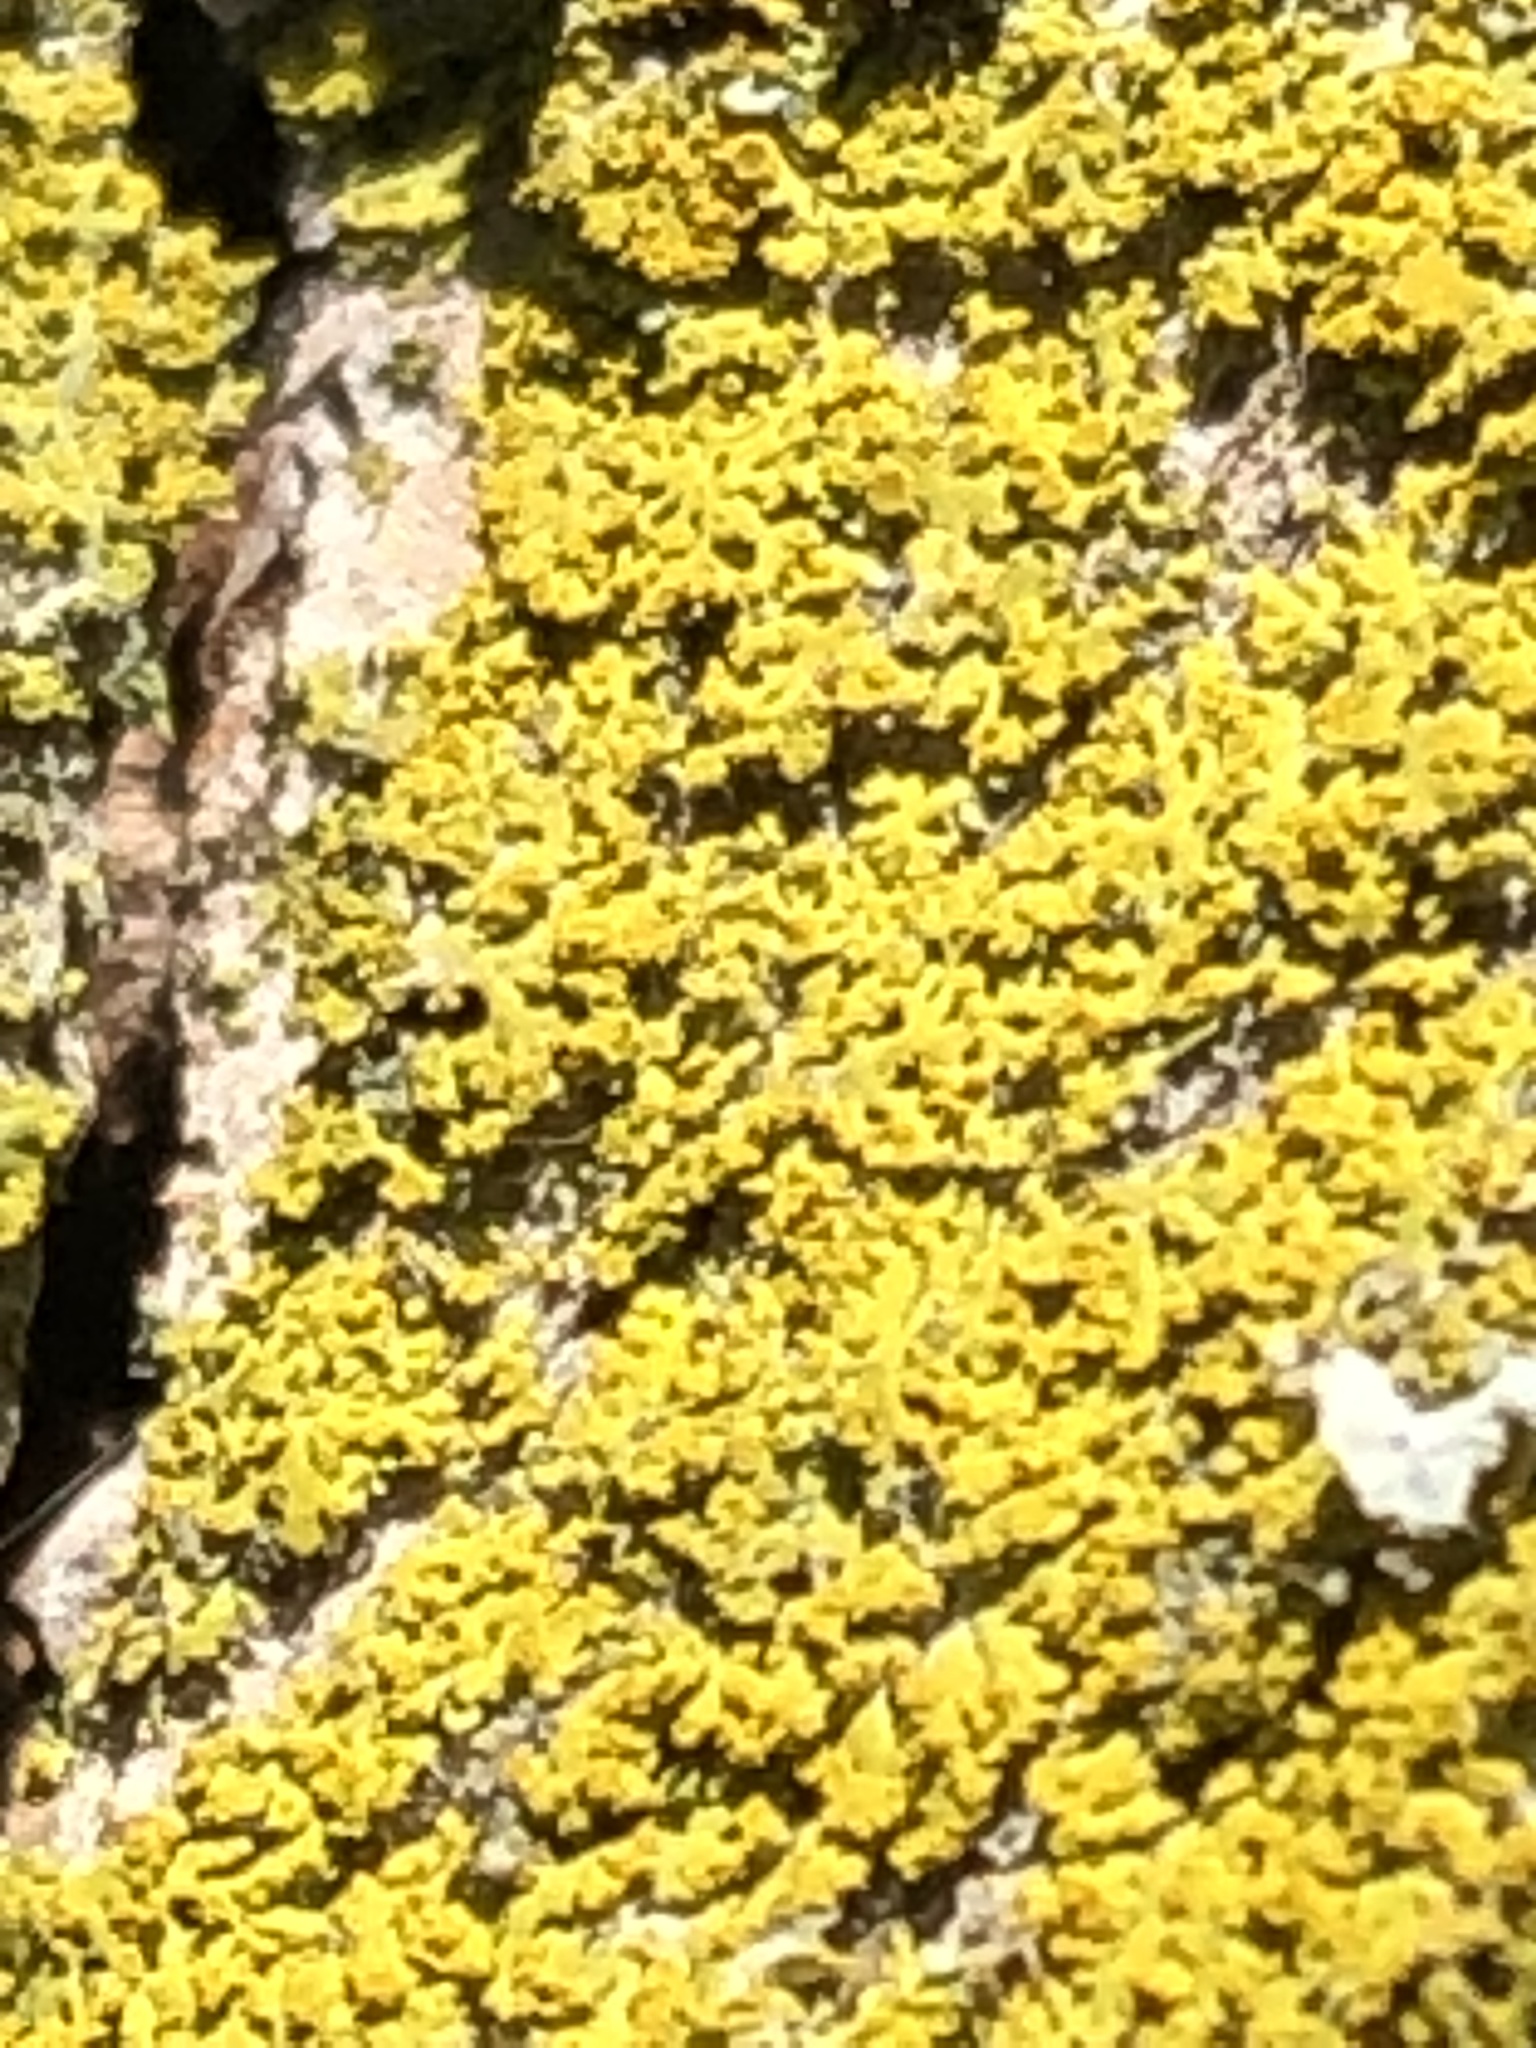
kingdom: Fungi
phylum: Ascomycota
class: Candelariomycetes
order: Candelariales
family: Candelariaceae
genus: Candelaria
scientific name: Candelaria concolor
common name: Candleflame lichen
